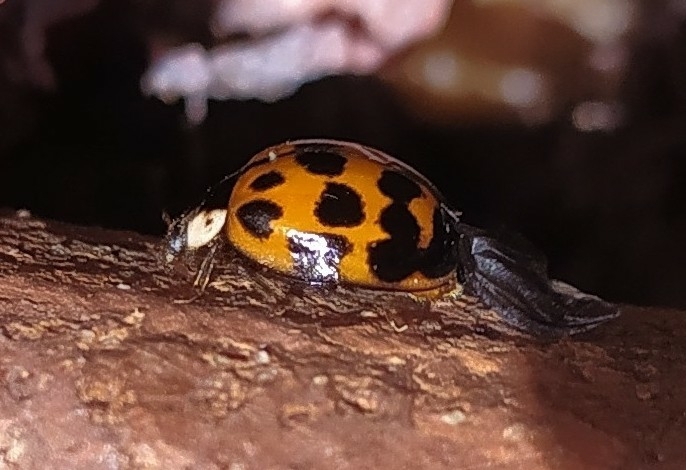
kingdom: Animalia
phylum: Arthropoda
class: Insecta
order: Coleoptera
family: Coccinellidae
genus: Harmonia
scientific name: Harmonia axyridis
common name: Harlequin ladybird
